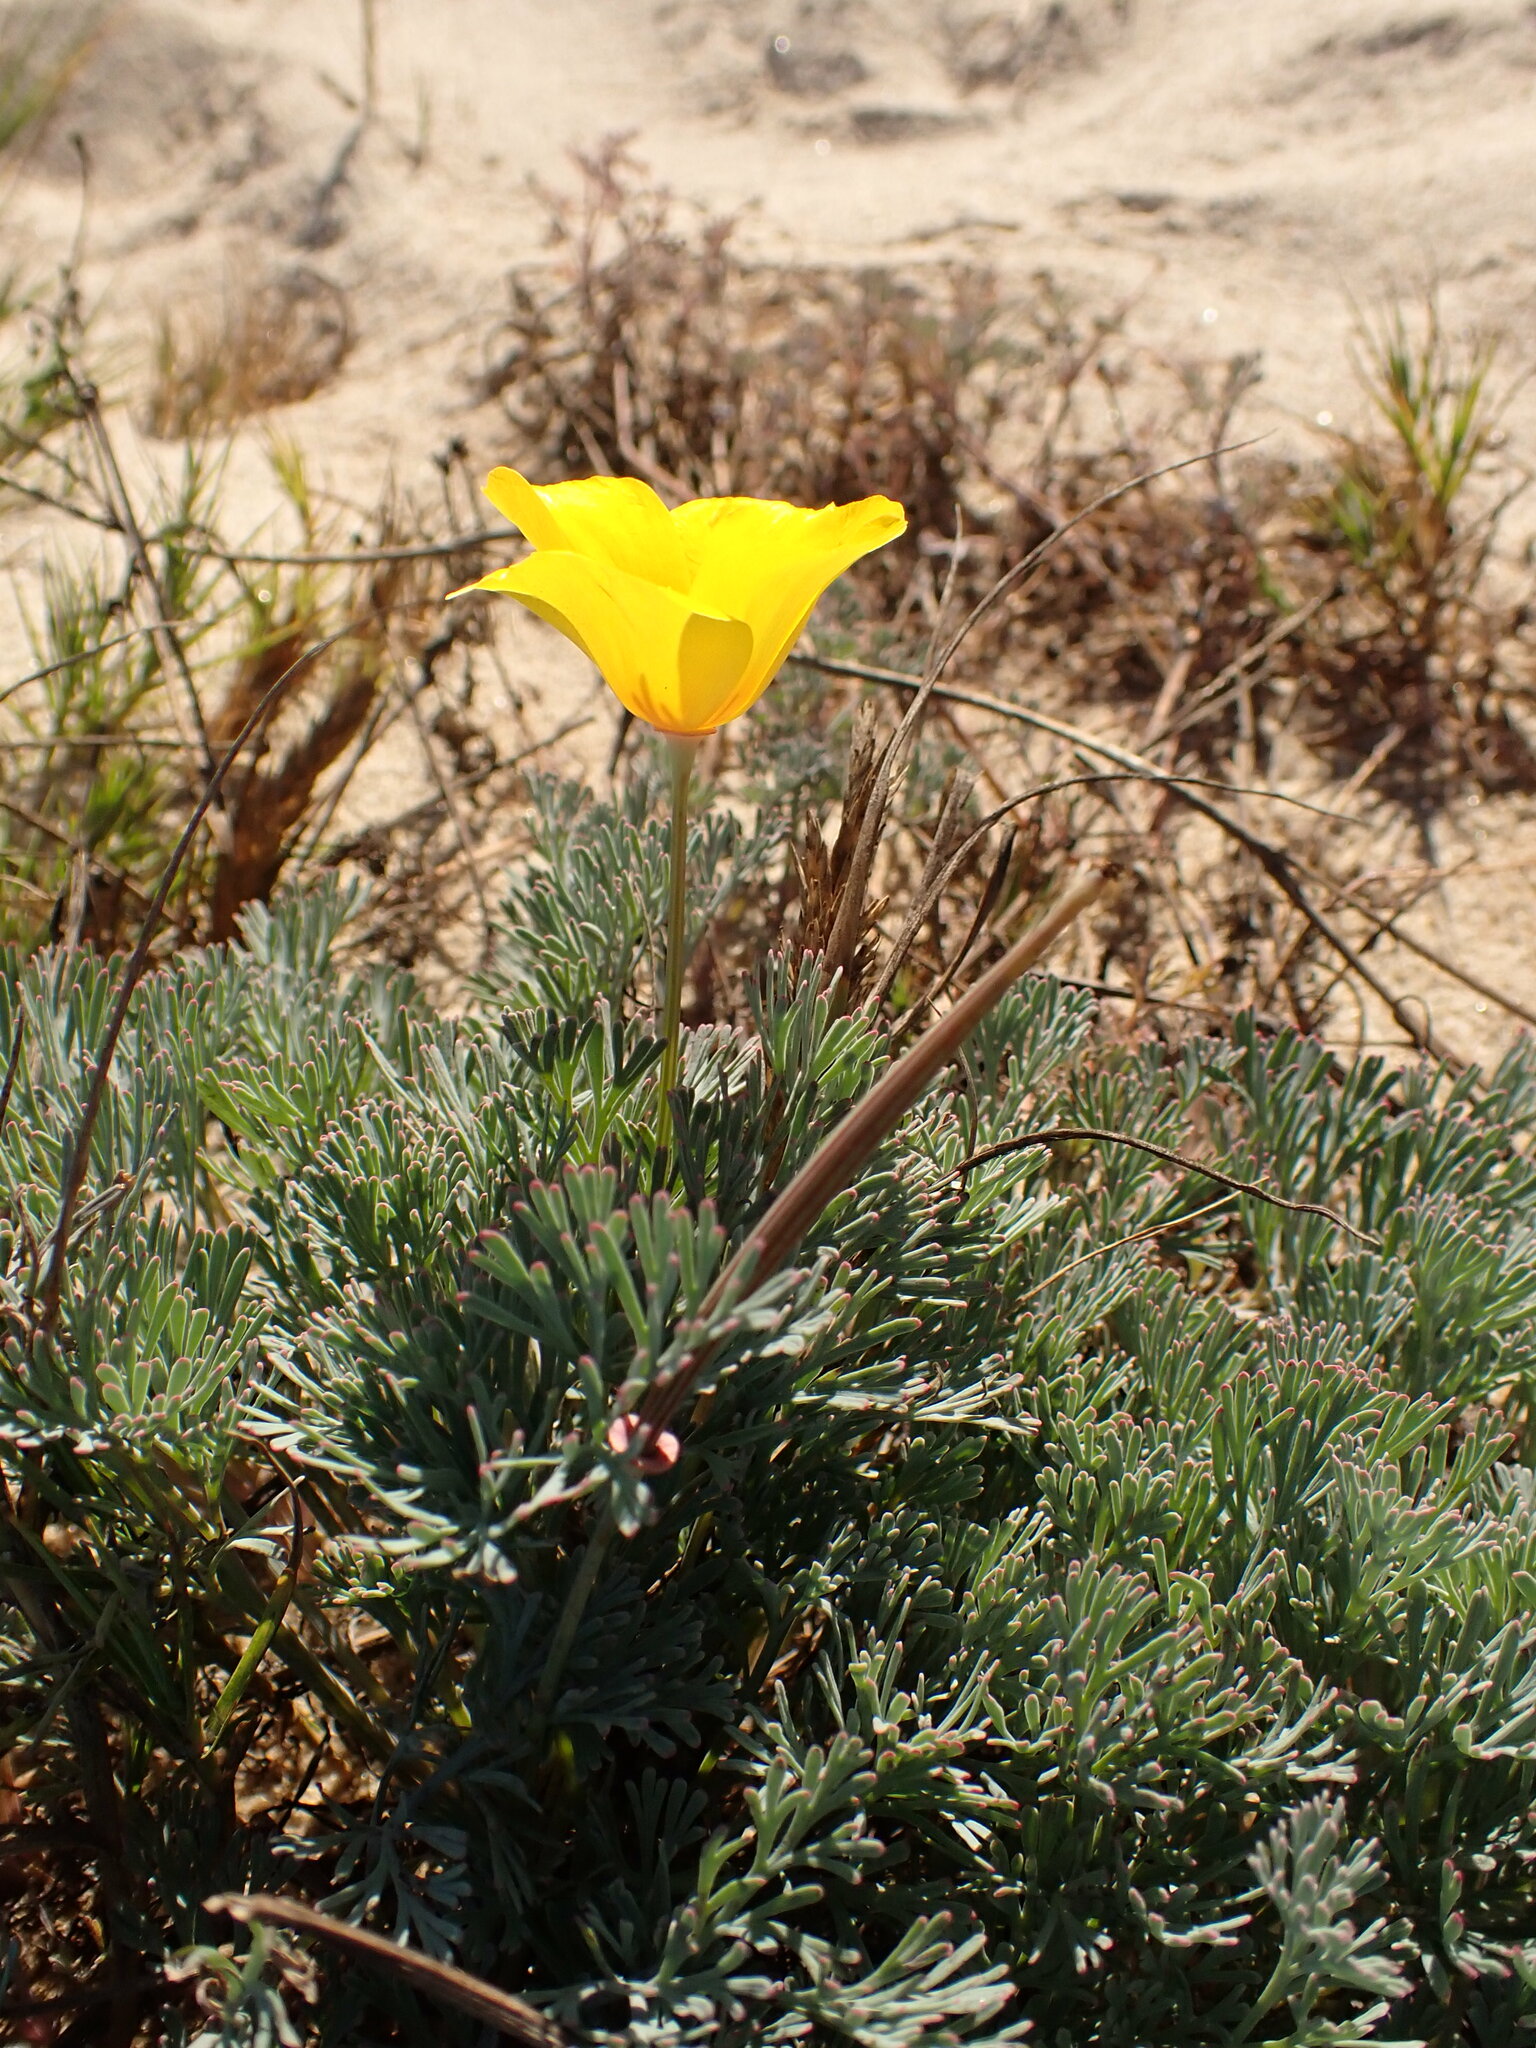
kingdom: Plantae
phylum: Tracheophyta
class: Magnoliopsida
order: Ranunculales
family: Papaveraceae
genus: Eschscholzia
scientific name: Eschscholzia californica
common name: California poppy
